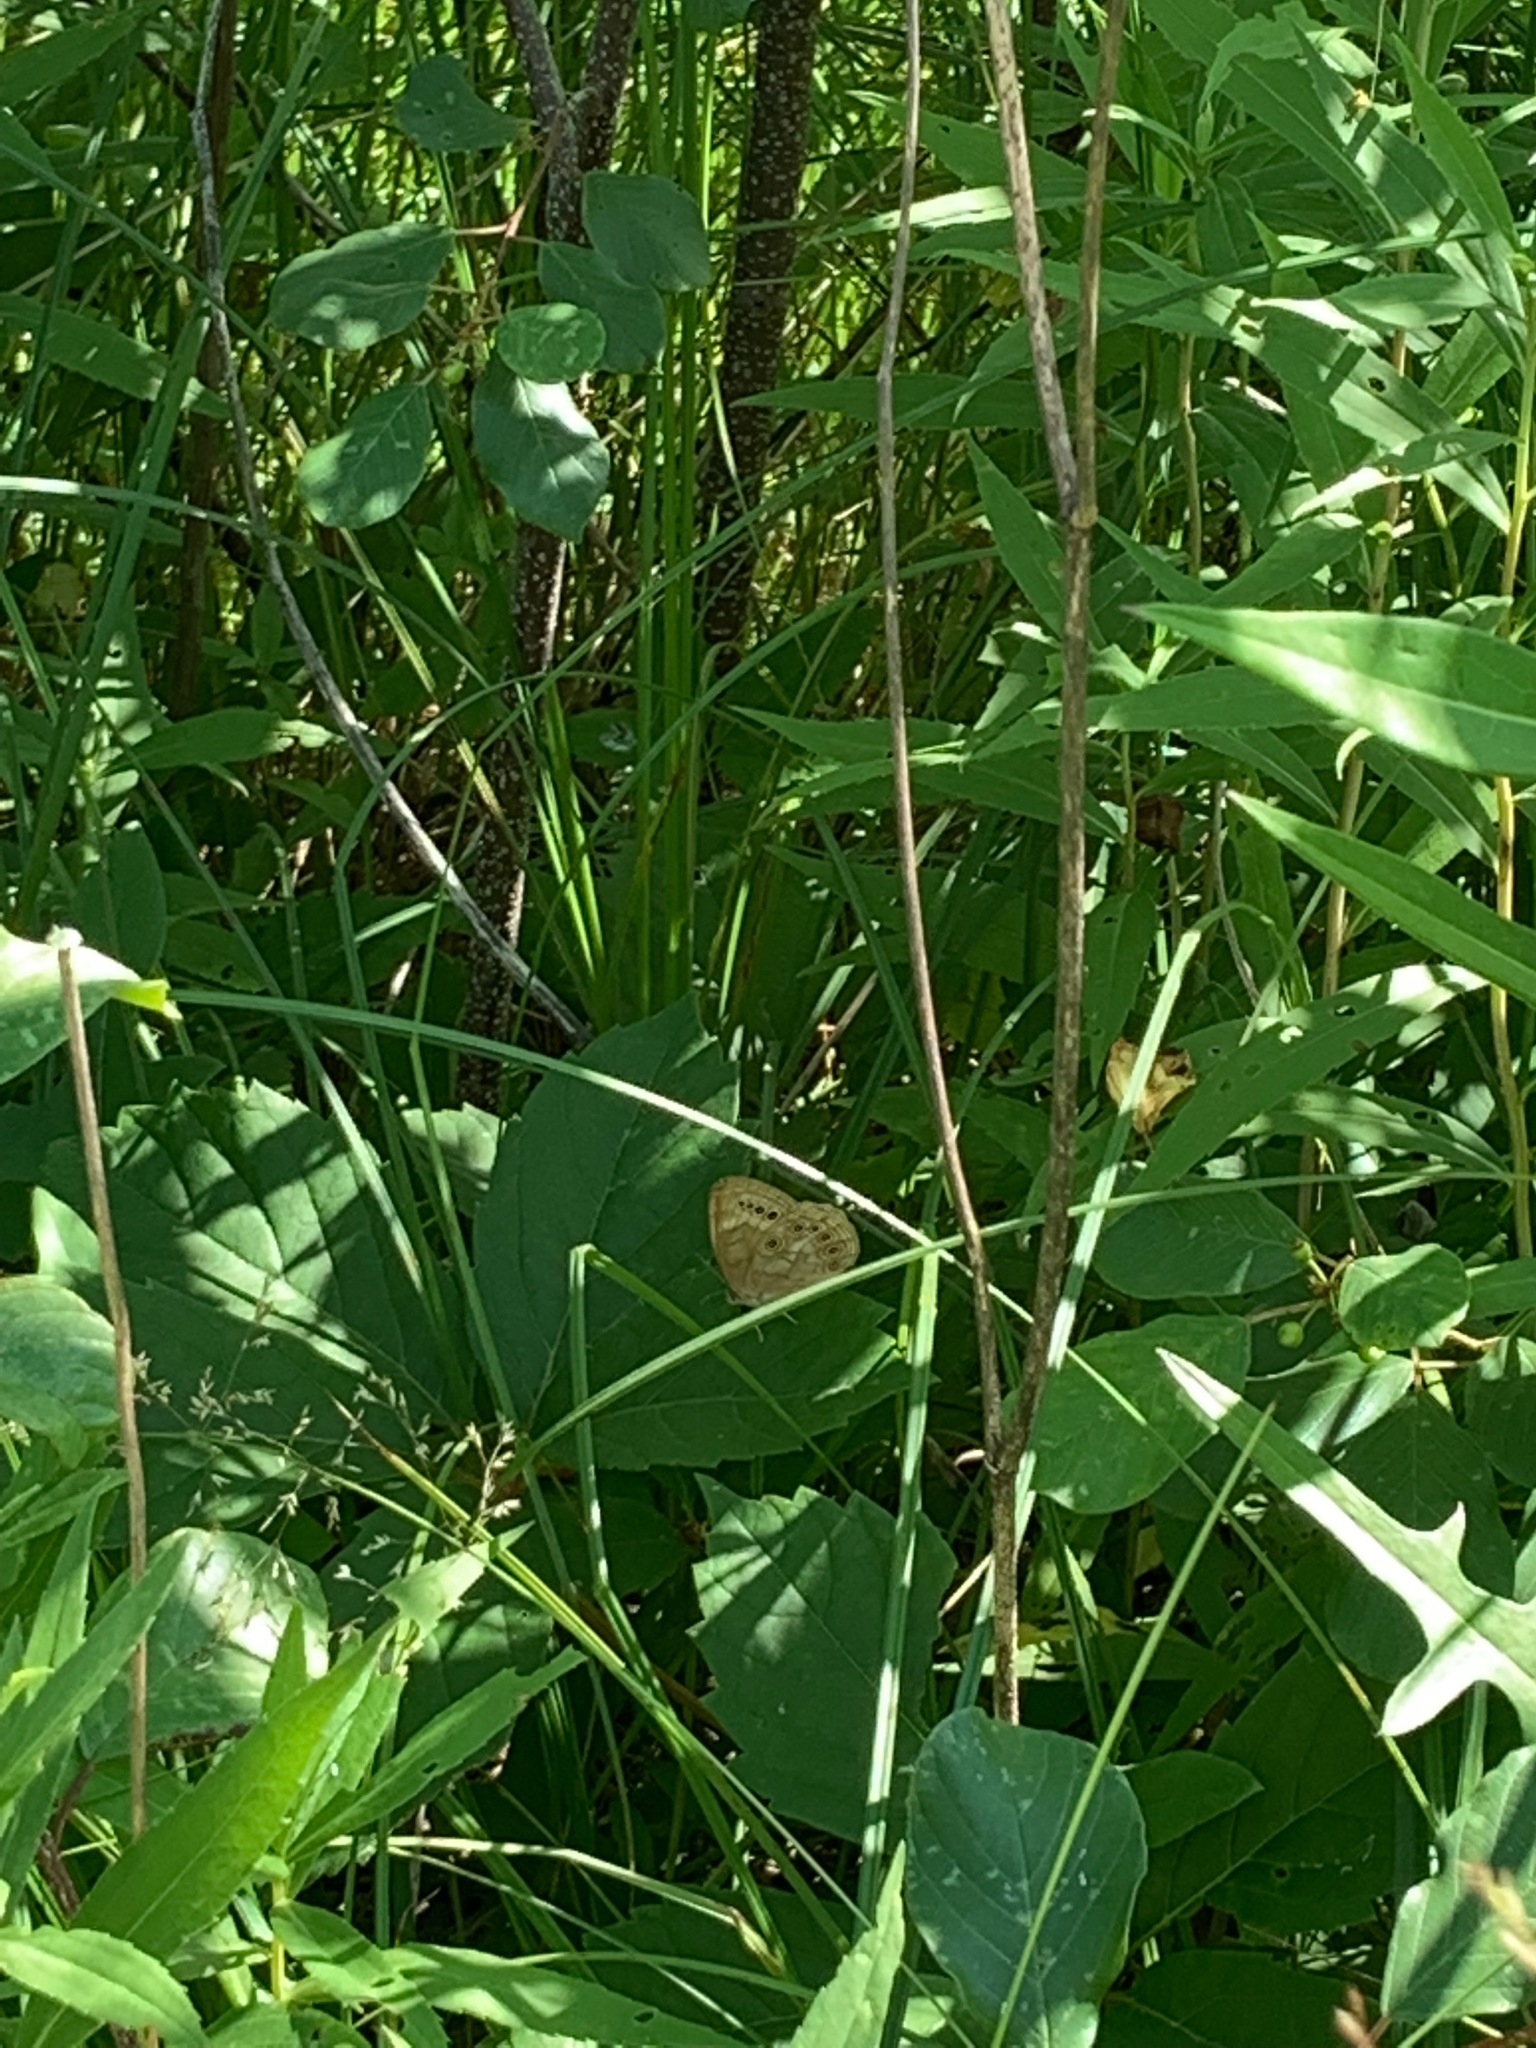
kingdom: Animalia
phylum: Arthropoda
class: Insecta
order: Lepidoptera
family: Nymphalidae
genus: Lethe
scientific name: Lethe eurydice
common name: Eyed brown
